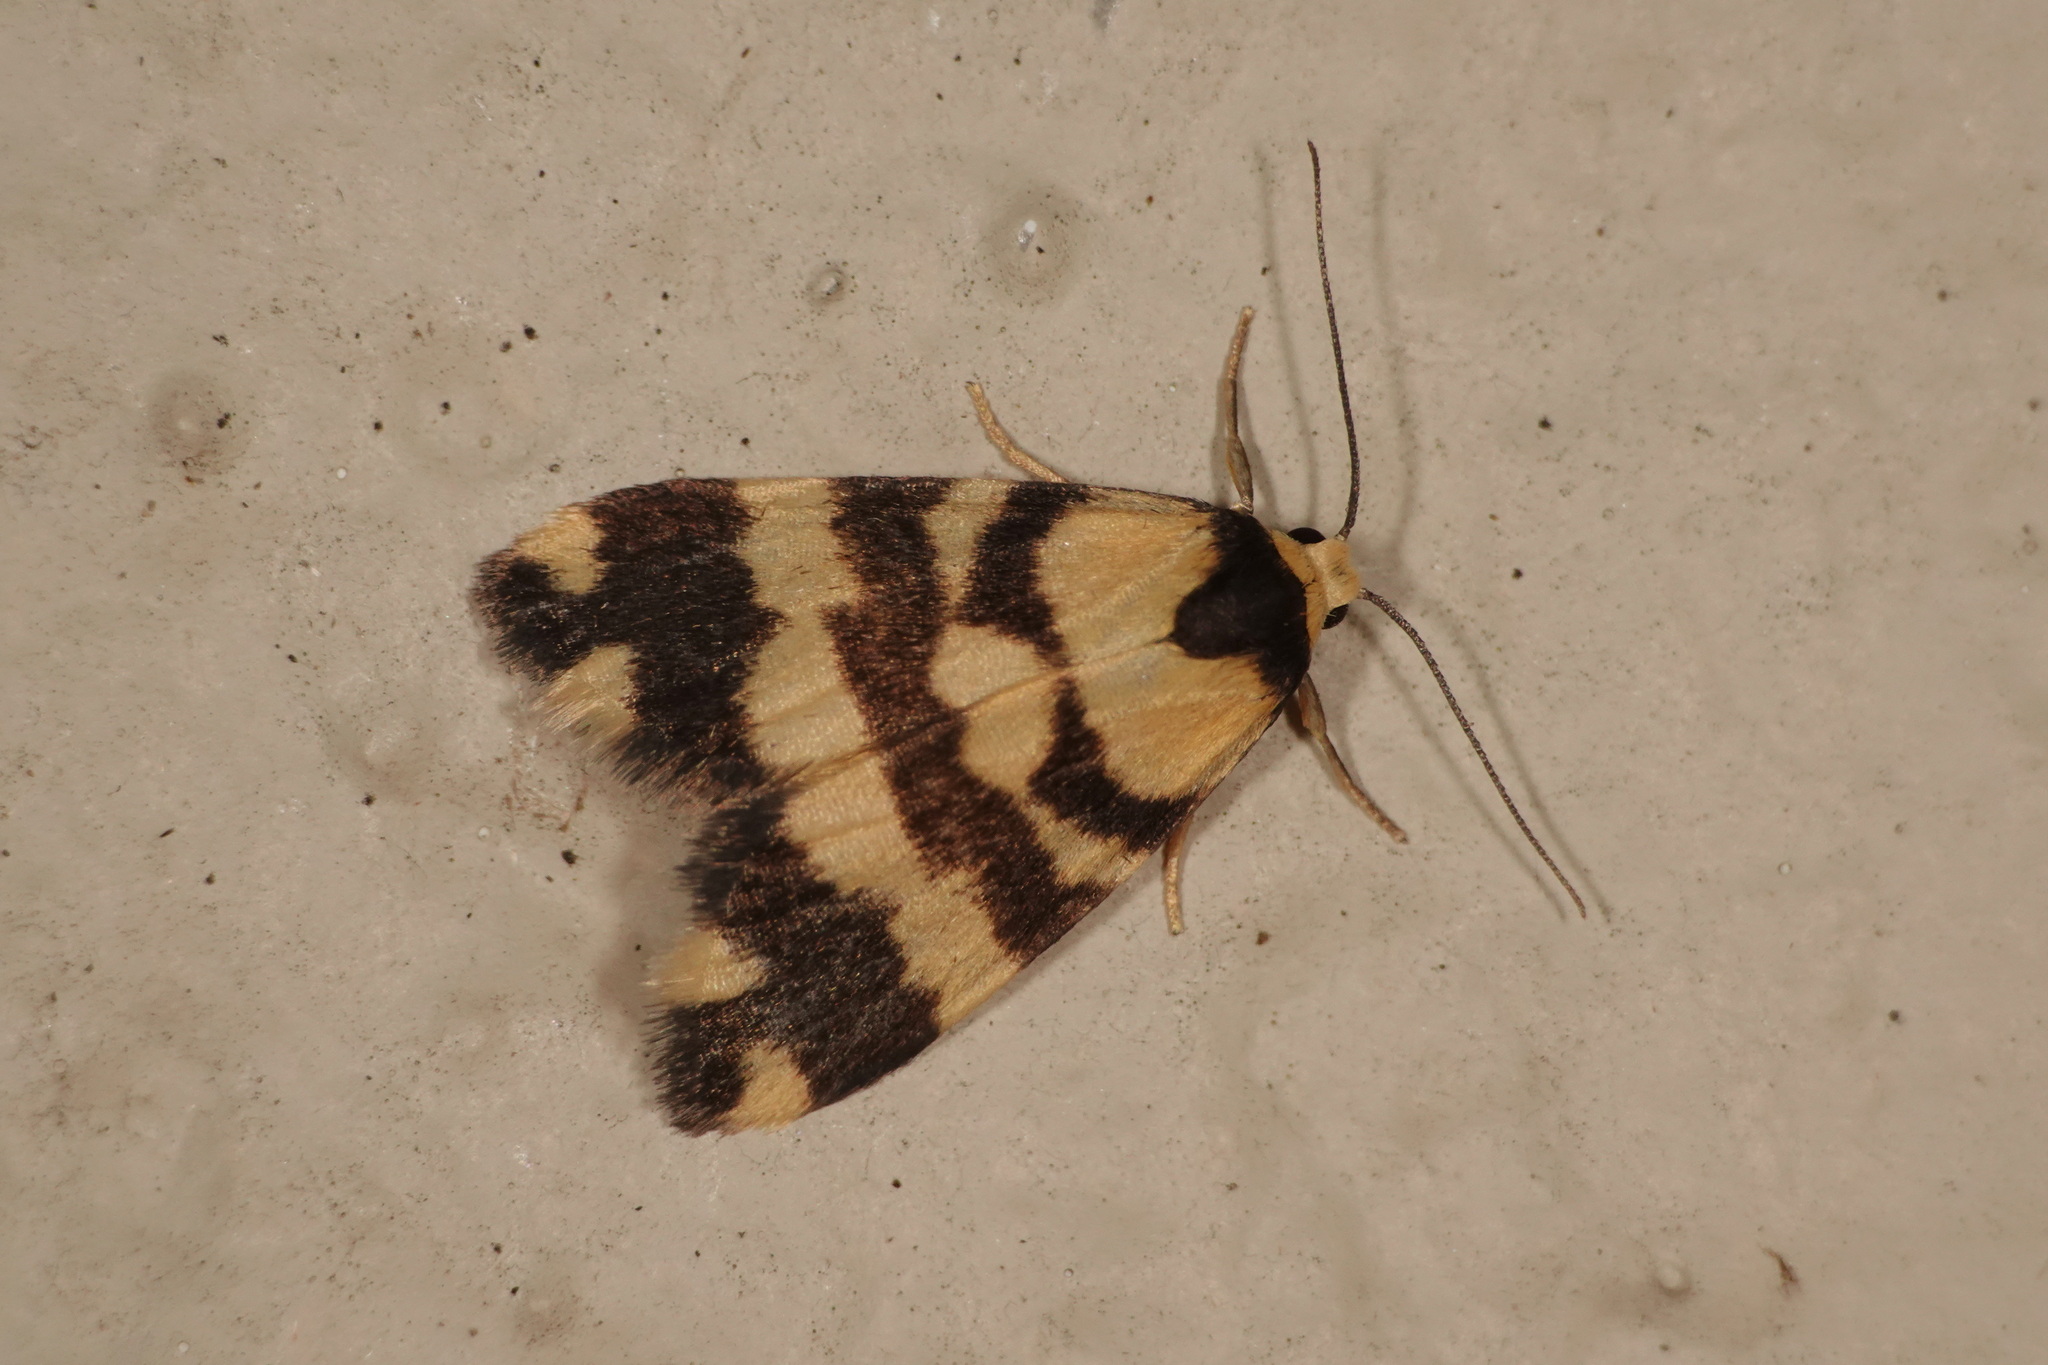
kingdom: Animalia
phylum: Arthropoda
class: Insecta
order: Lepidoptera
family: Erebidae
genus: Thallarcha
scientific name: Thallarcha partita
